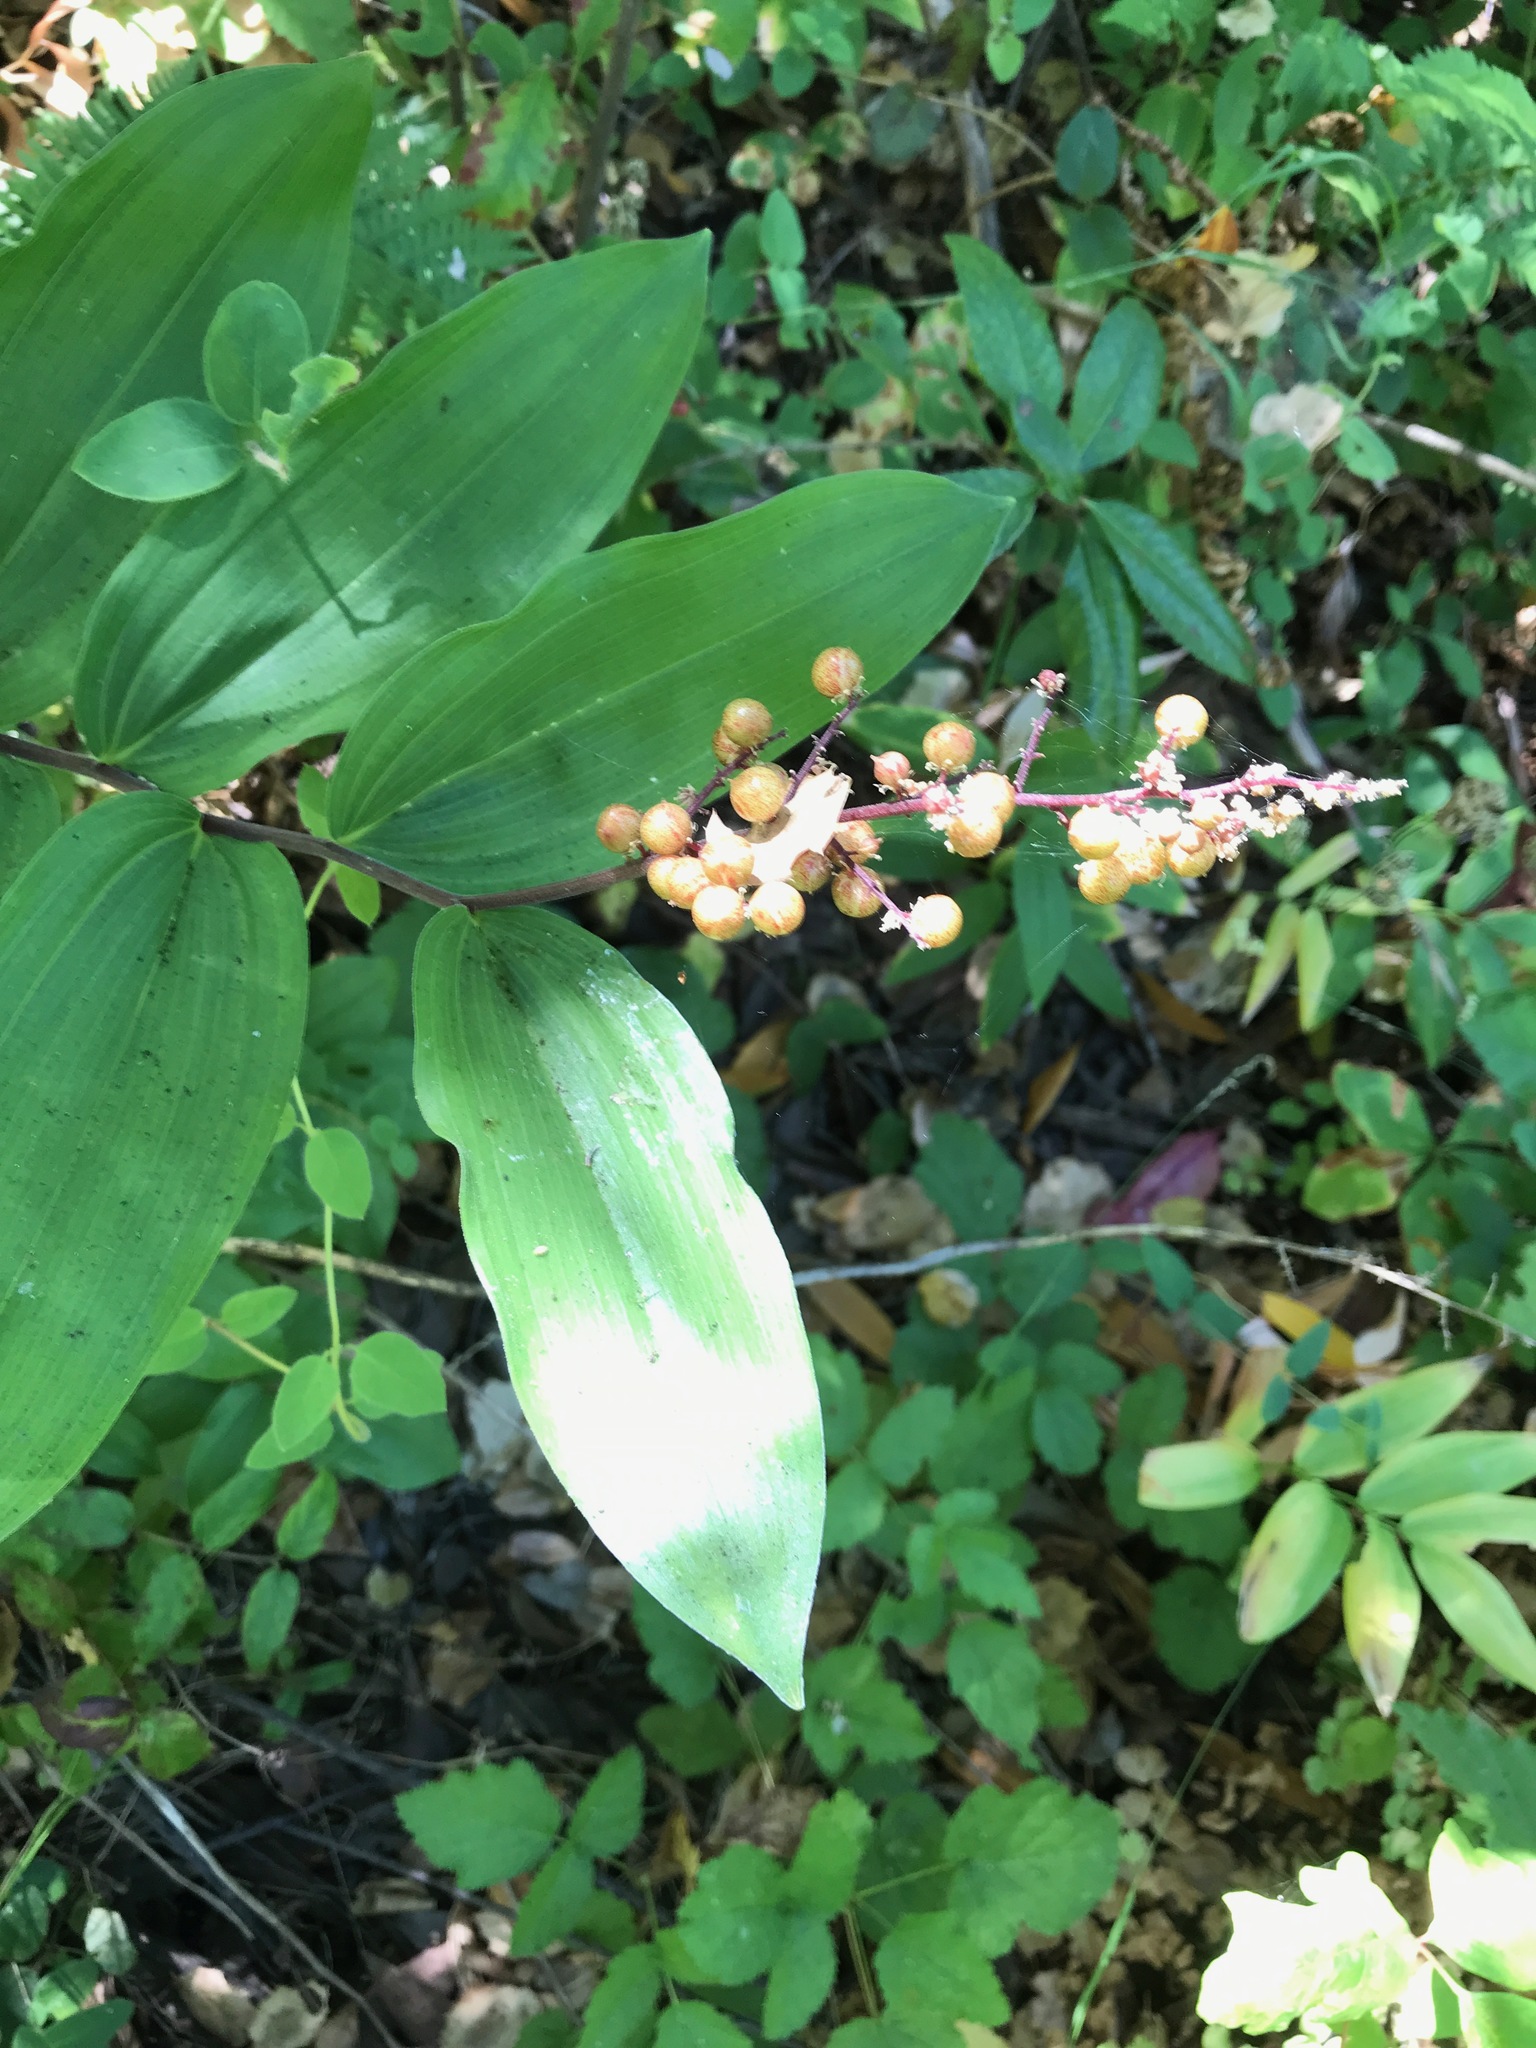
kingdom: Plantae
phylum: Tracheophyta
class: Liliopsida
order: Asparagales
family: Asparagaceae
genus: Maianthemum
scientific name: Maianthemum racemosum
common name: False spikenard
